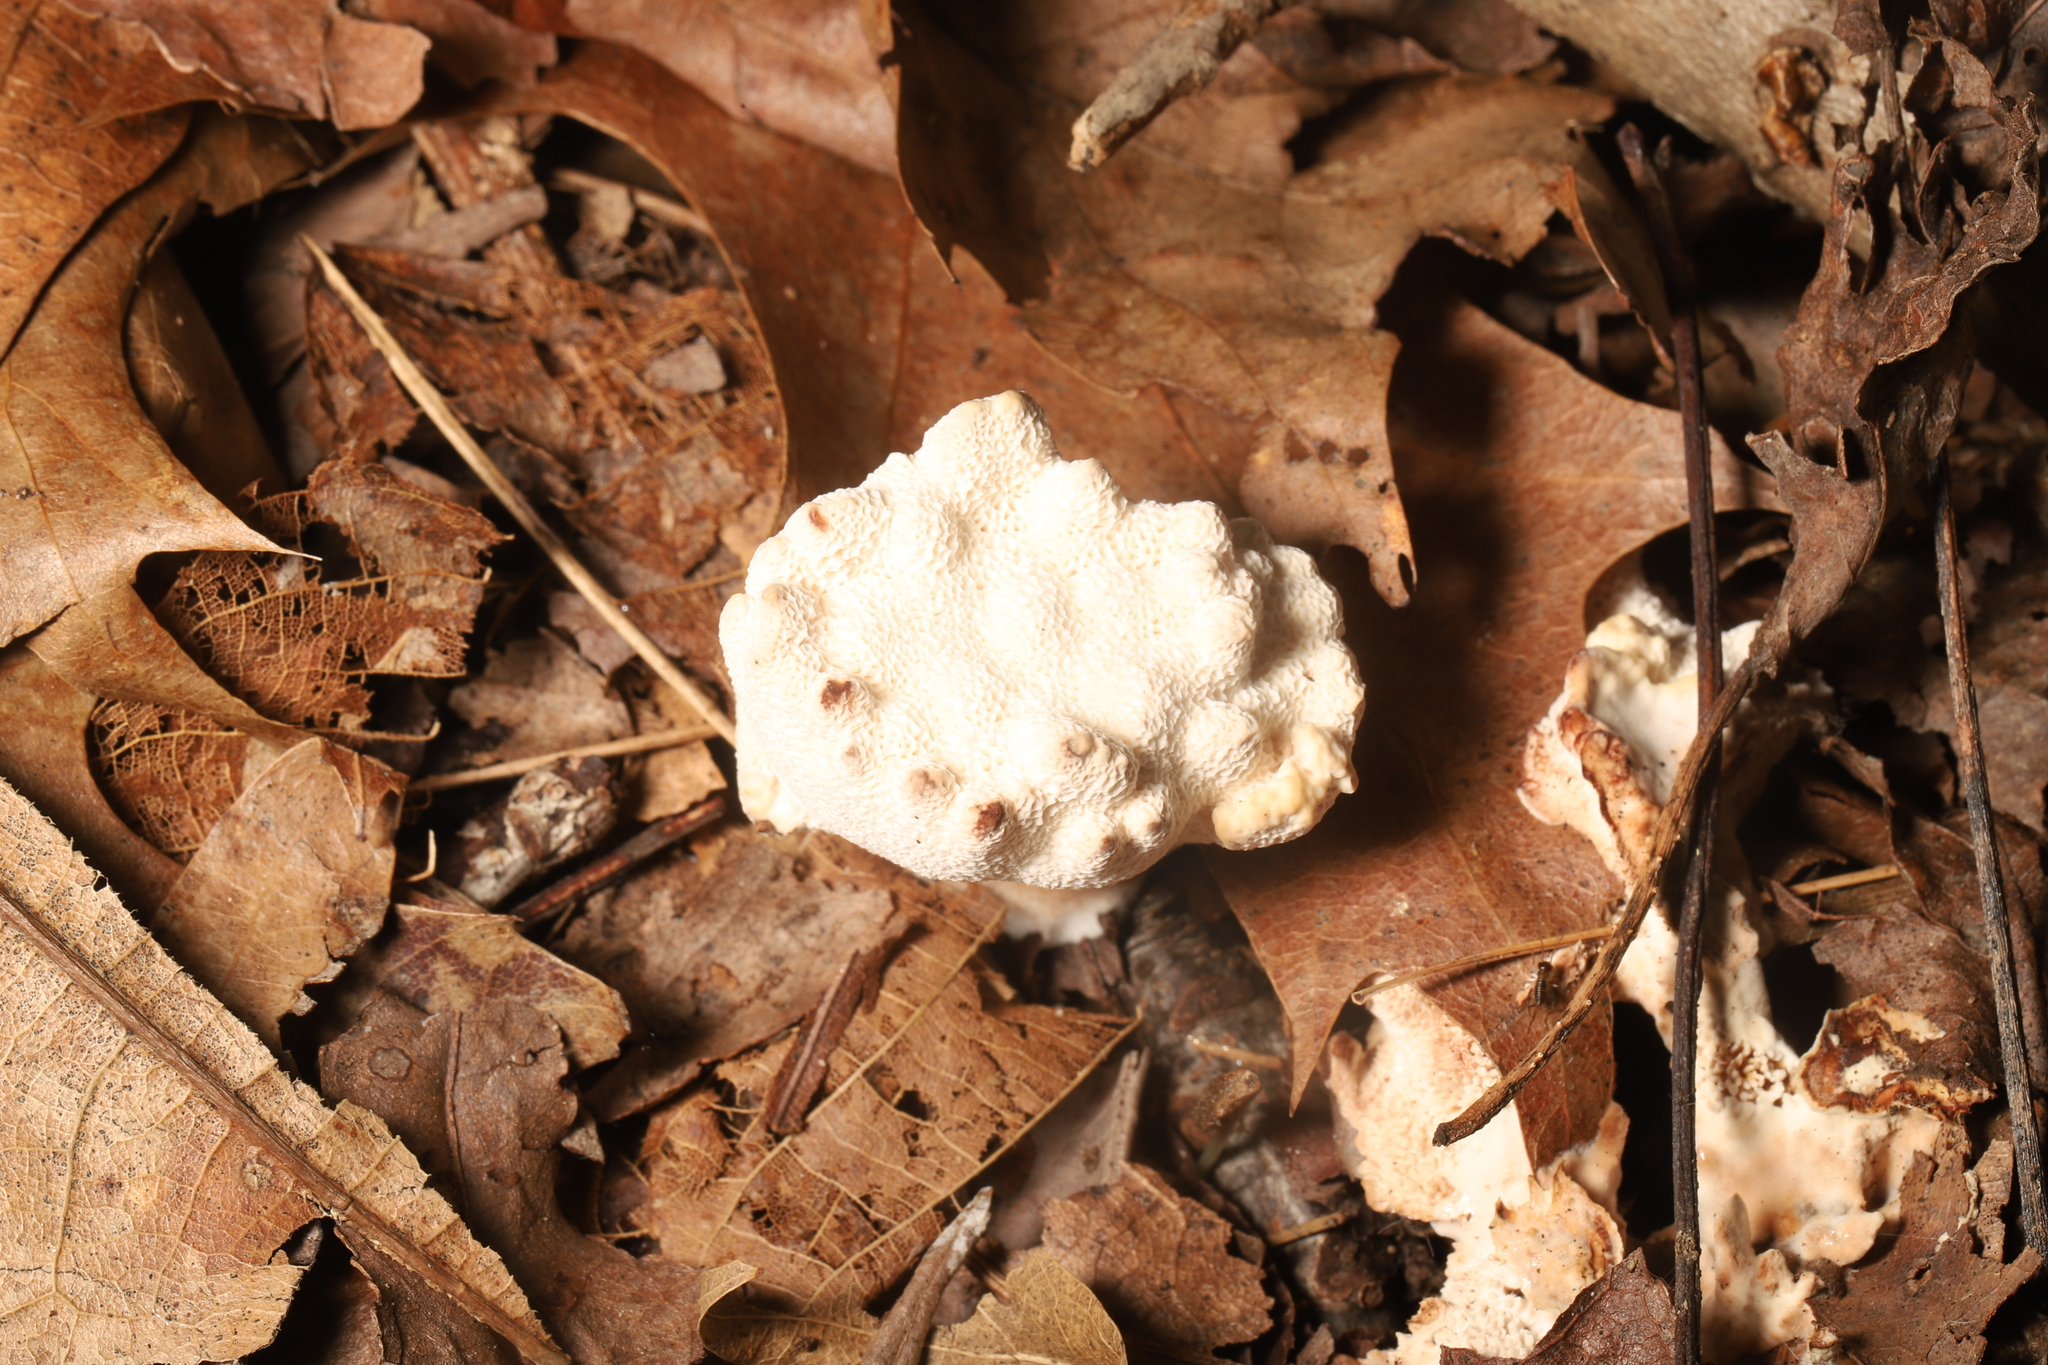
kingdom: Fungi
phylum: Basidiomycota
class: Agaricomycetes
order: Polyporales
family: Podoscyphaceae
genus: Abortiporus
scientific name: Abortiporus biennis
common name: Blushing rosette
